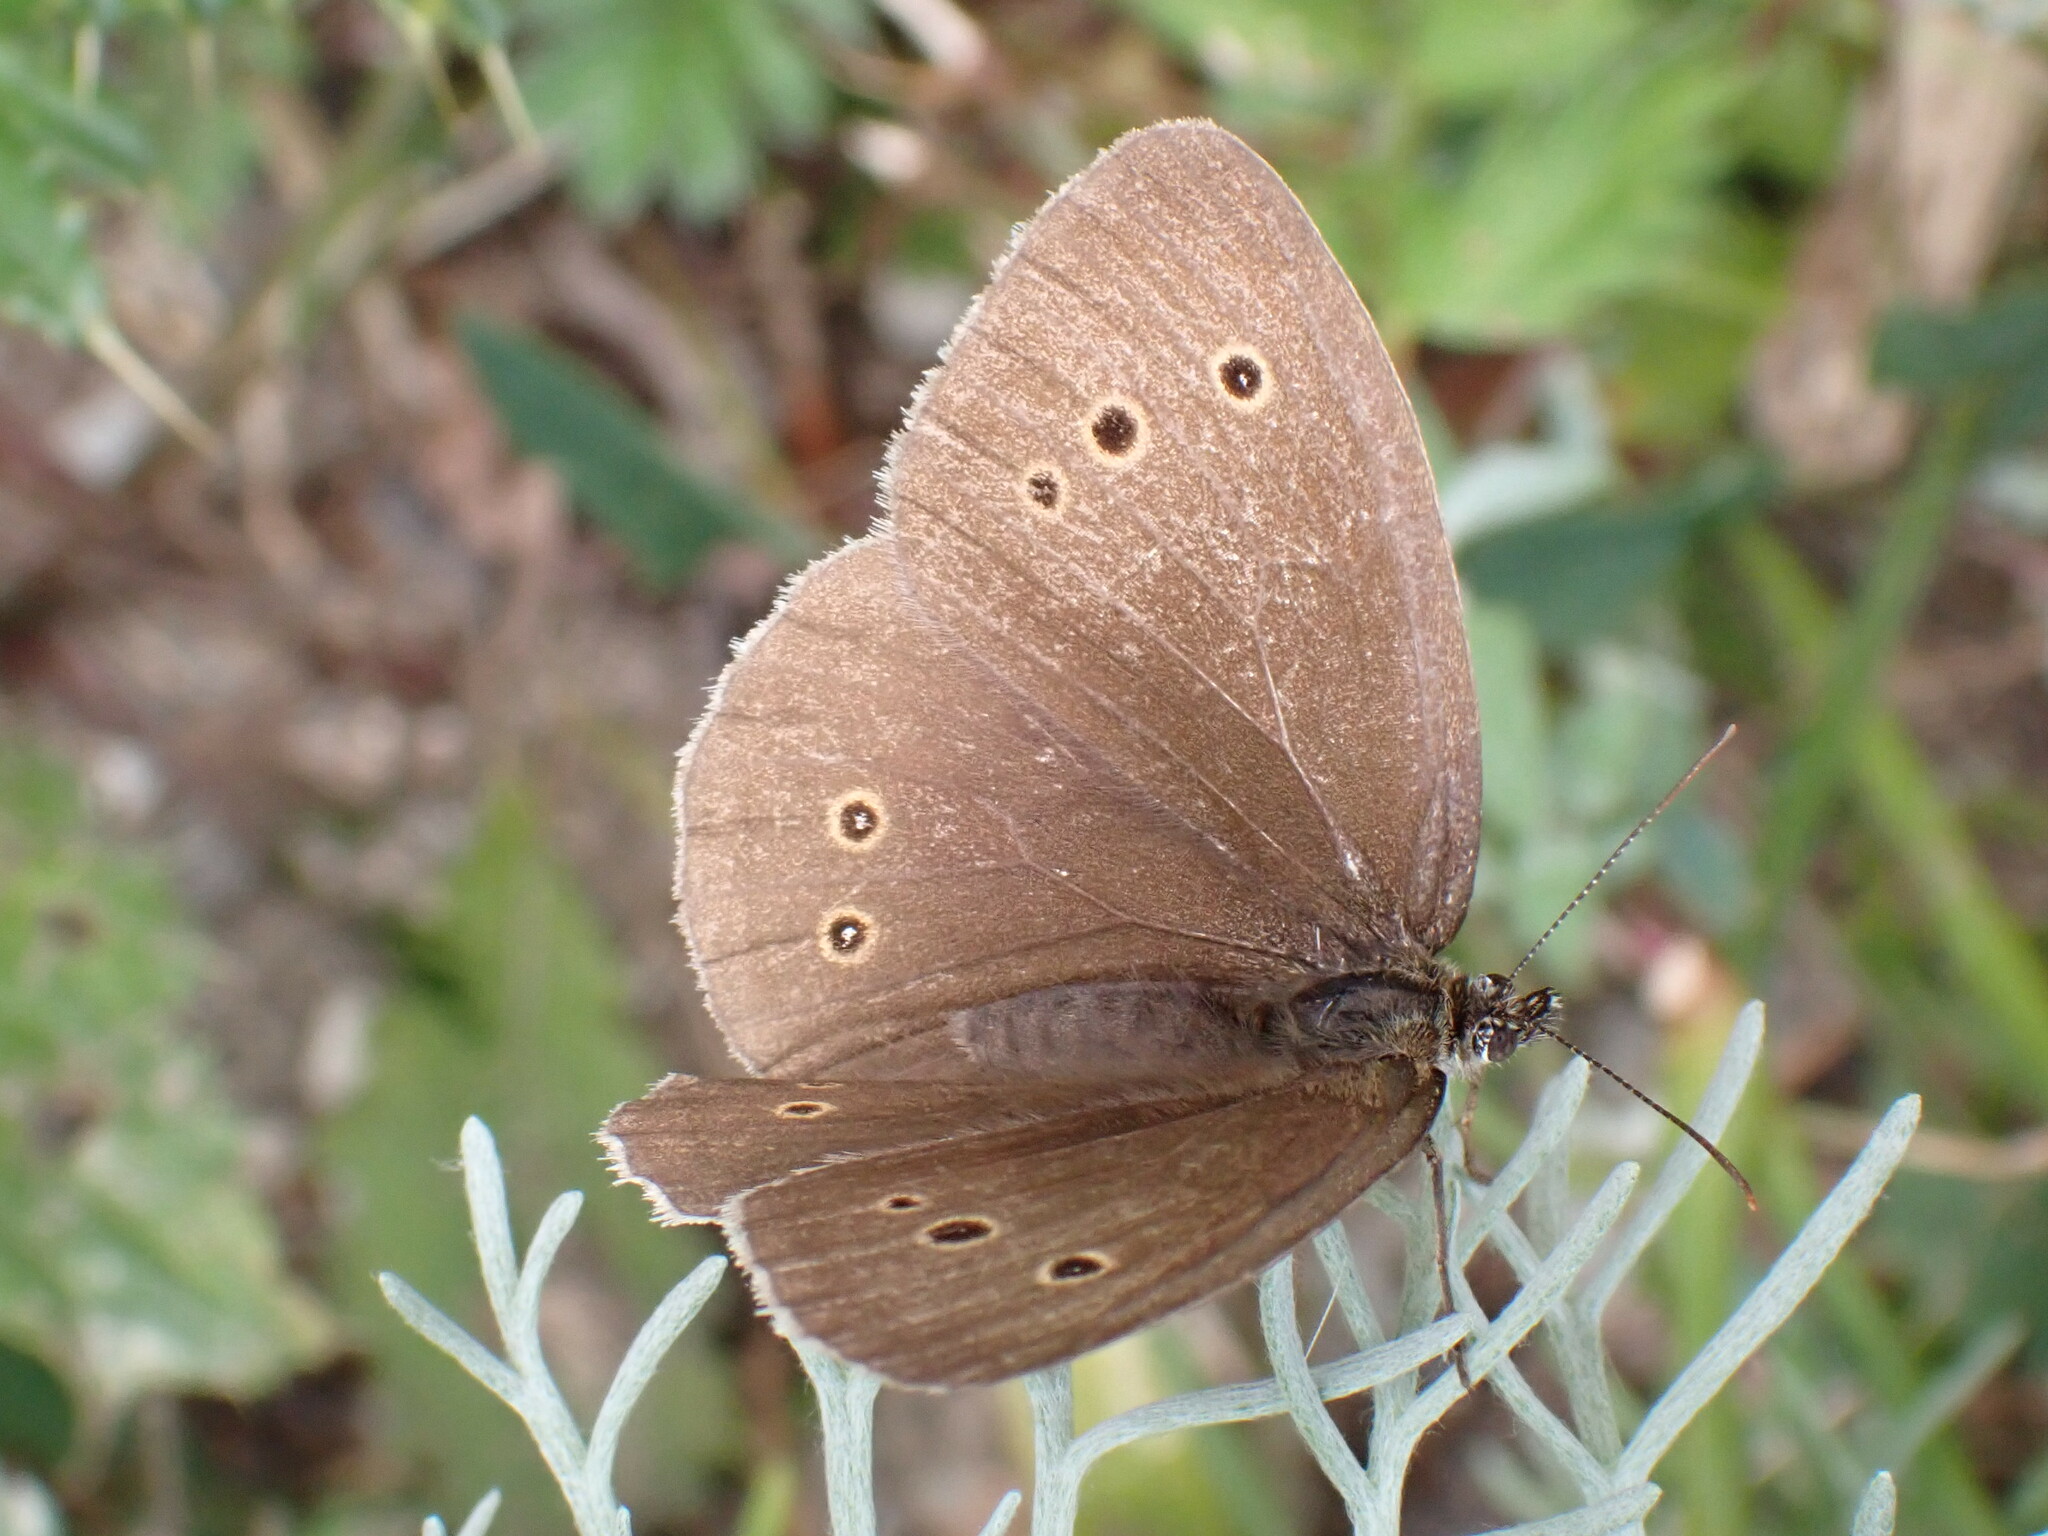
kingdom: Animalia
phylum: Arthropoda
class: Insecta
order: Lepidoptera
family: Nymphalidae
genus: Aphantopus
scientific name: Aphantopus hyperantus
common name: Ringlet
